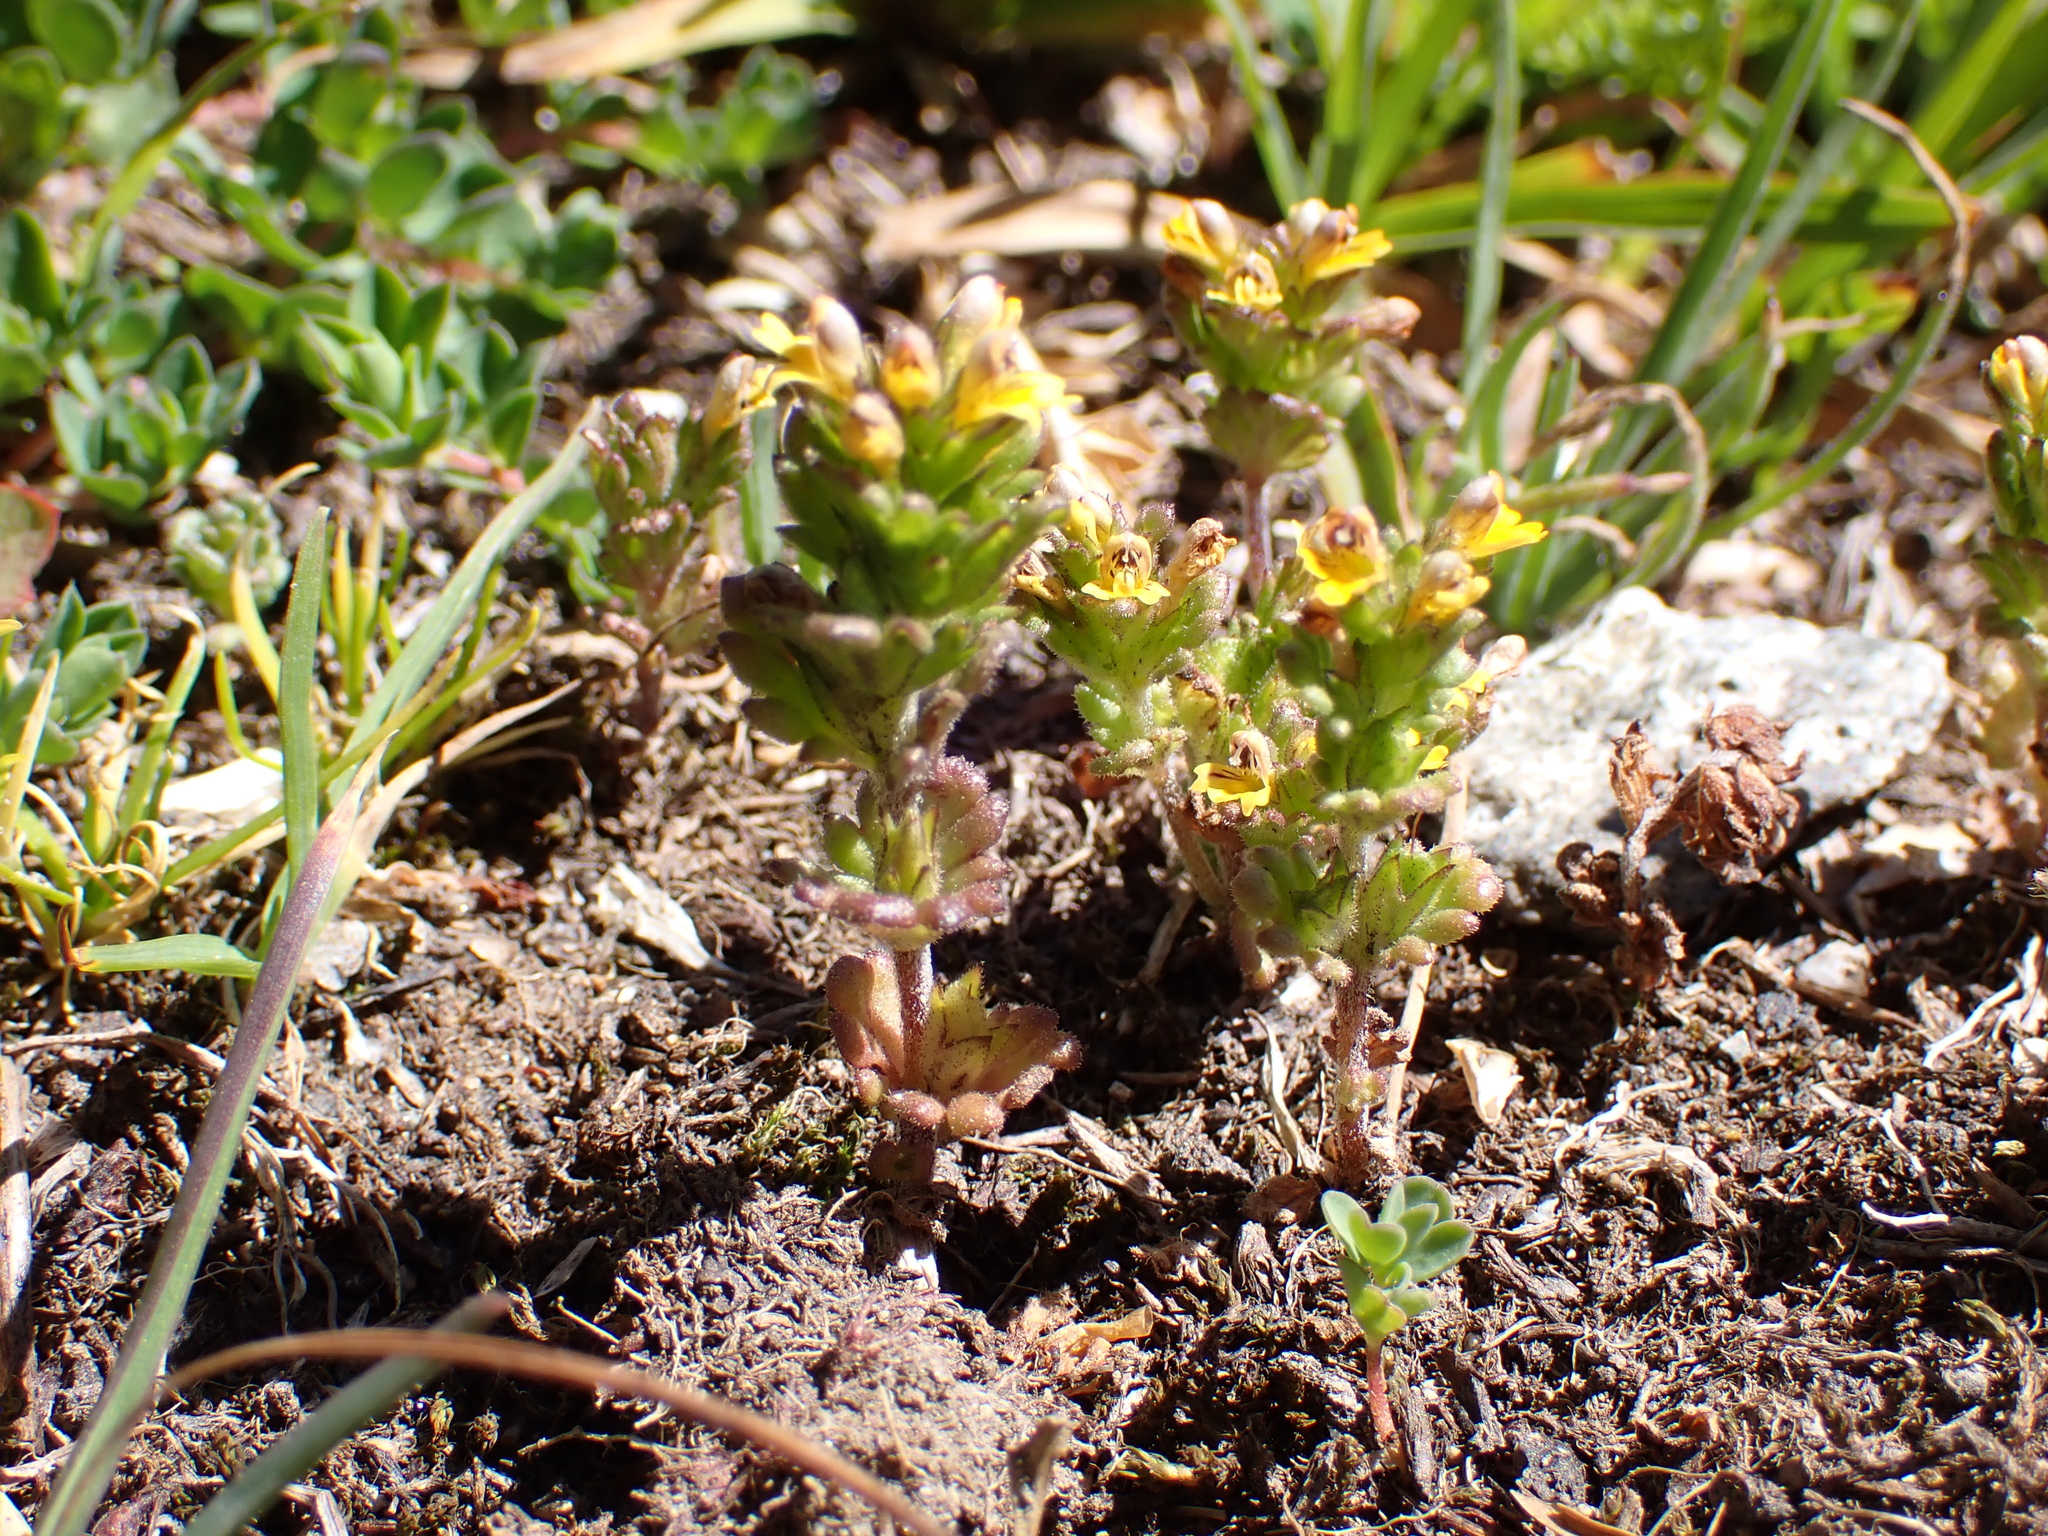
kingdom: Plantae
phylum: Tracheophyta
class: Magnoliopsida
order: Lamiales
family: Orobanchaceae
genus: Euphrasia
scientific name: Euphrasia minima
